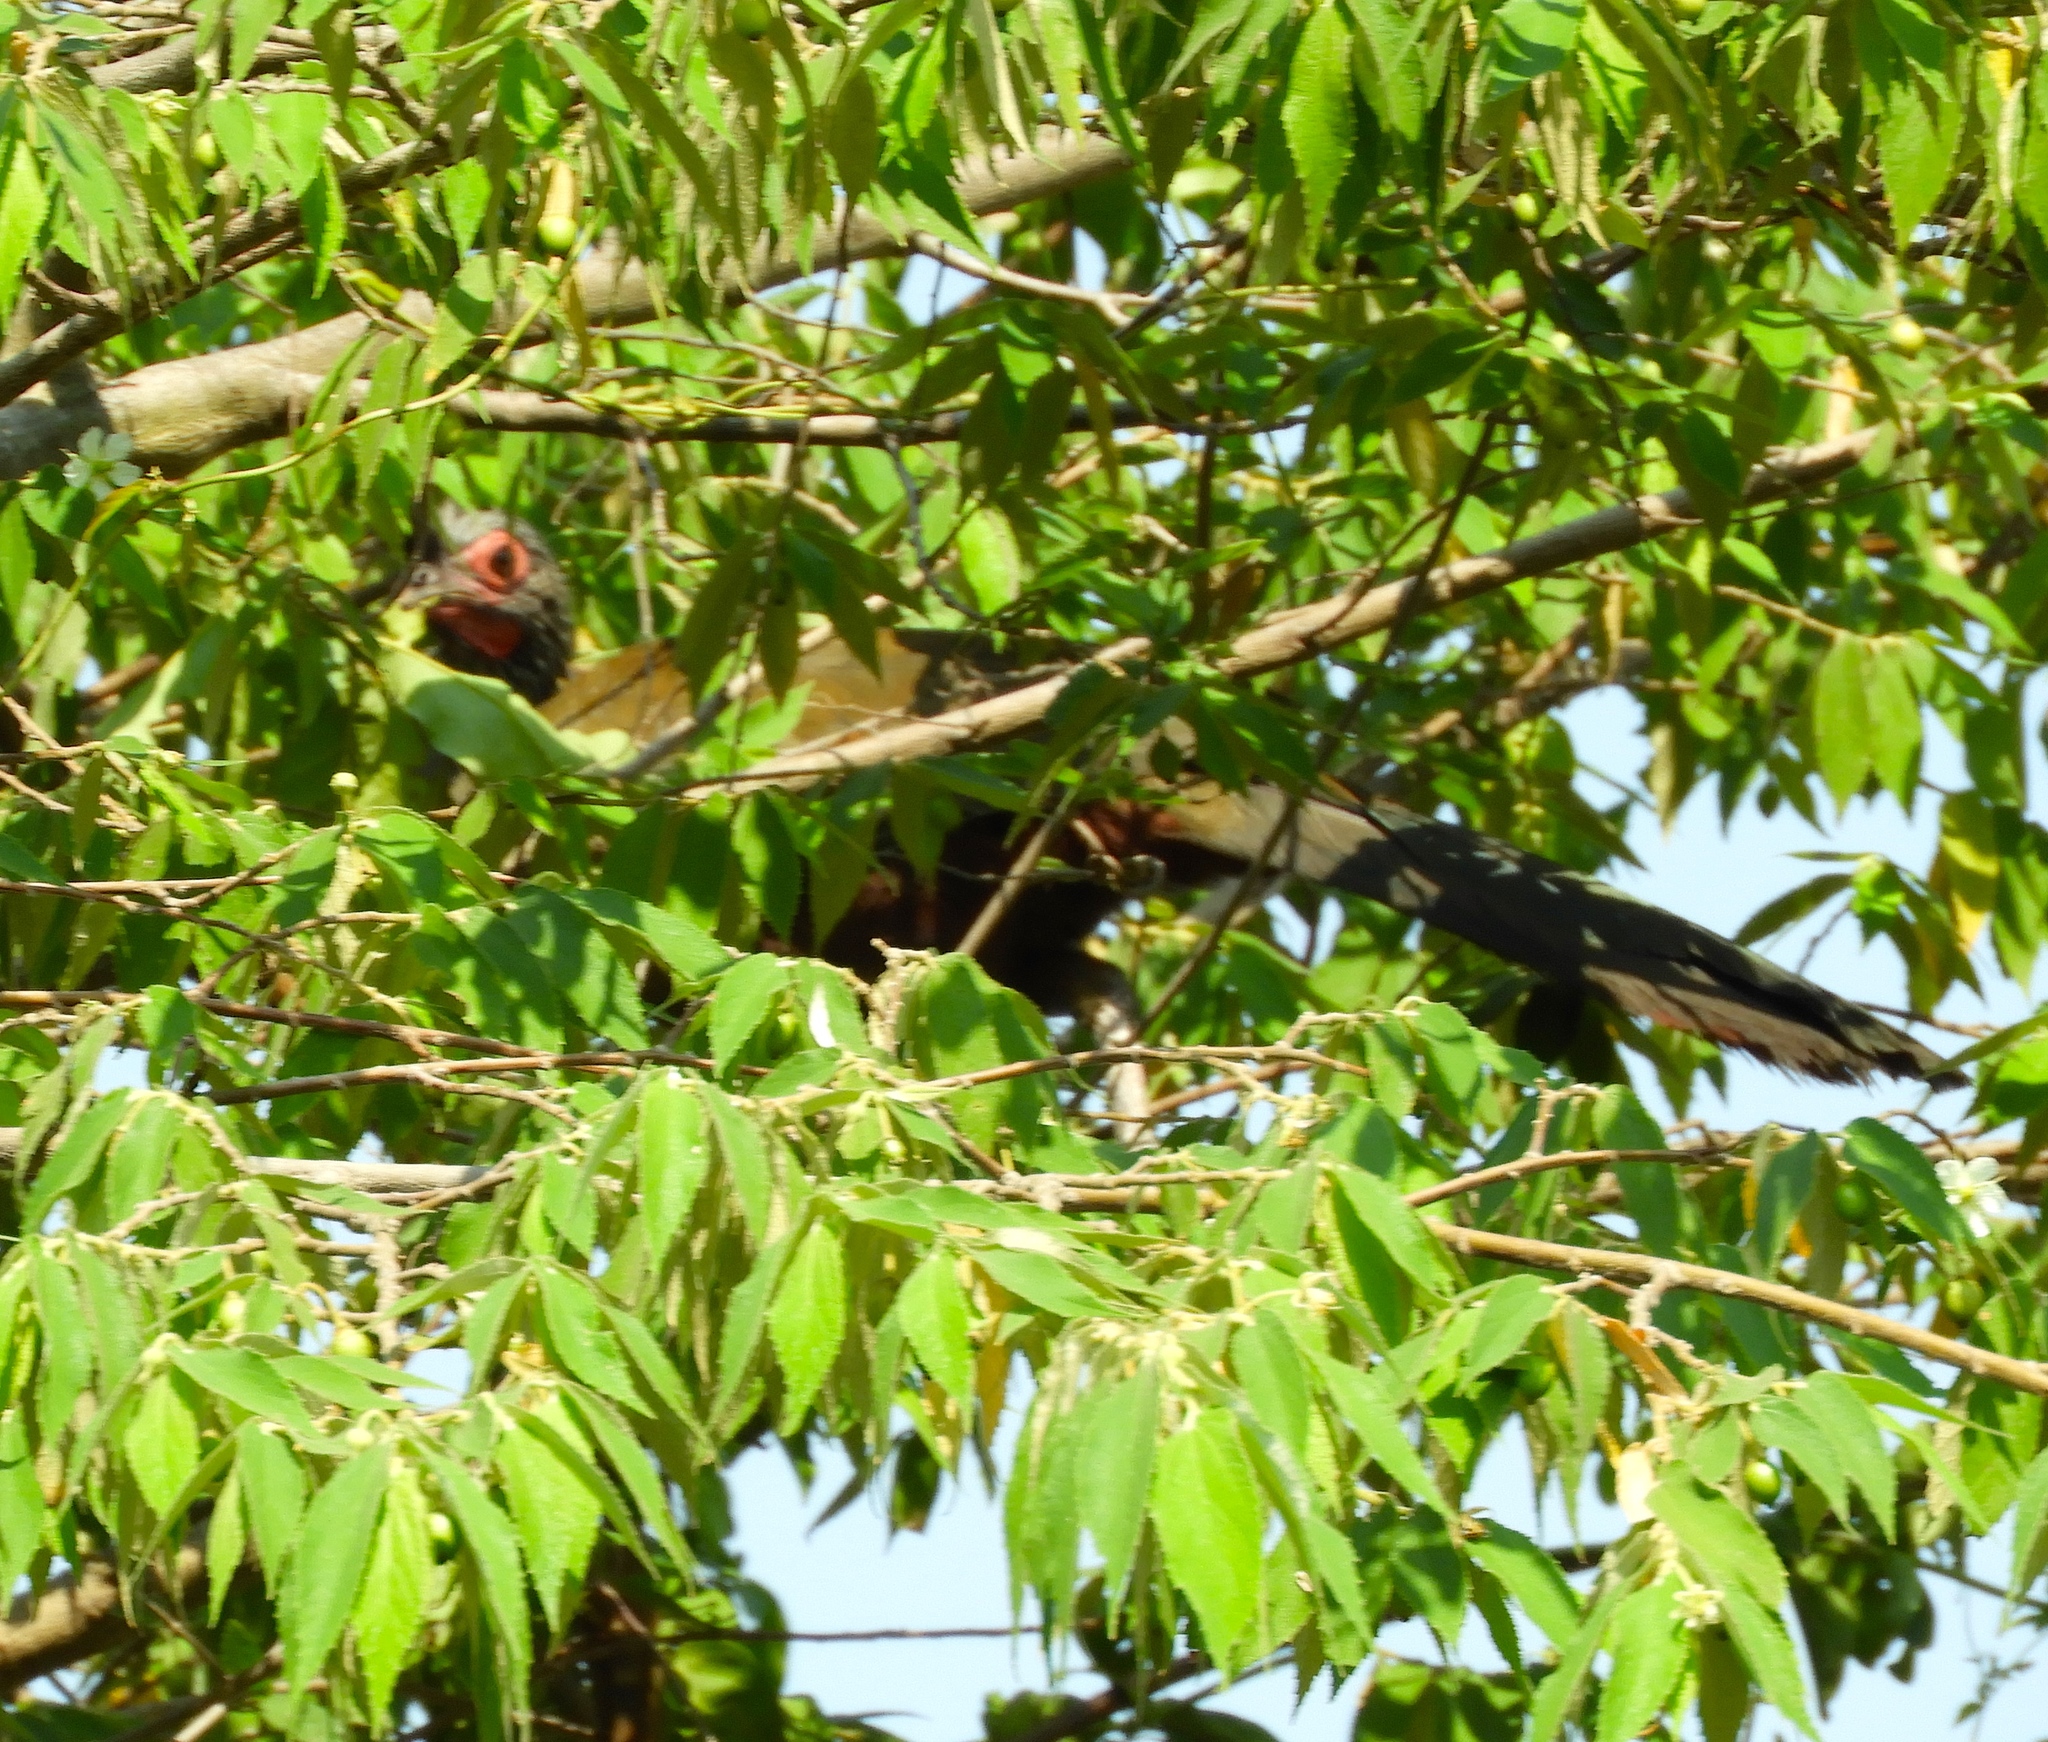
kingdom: Animalia
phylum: Chordata
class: Aves
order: Galliformes
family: Cracidae
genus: Ortalis
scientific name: Ortalis wagleri
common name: Rufous-bellied chachalaca
